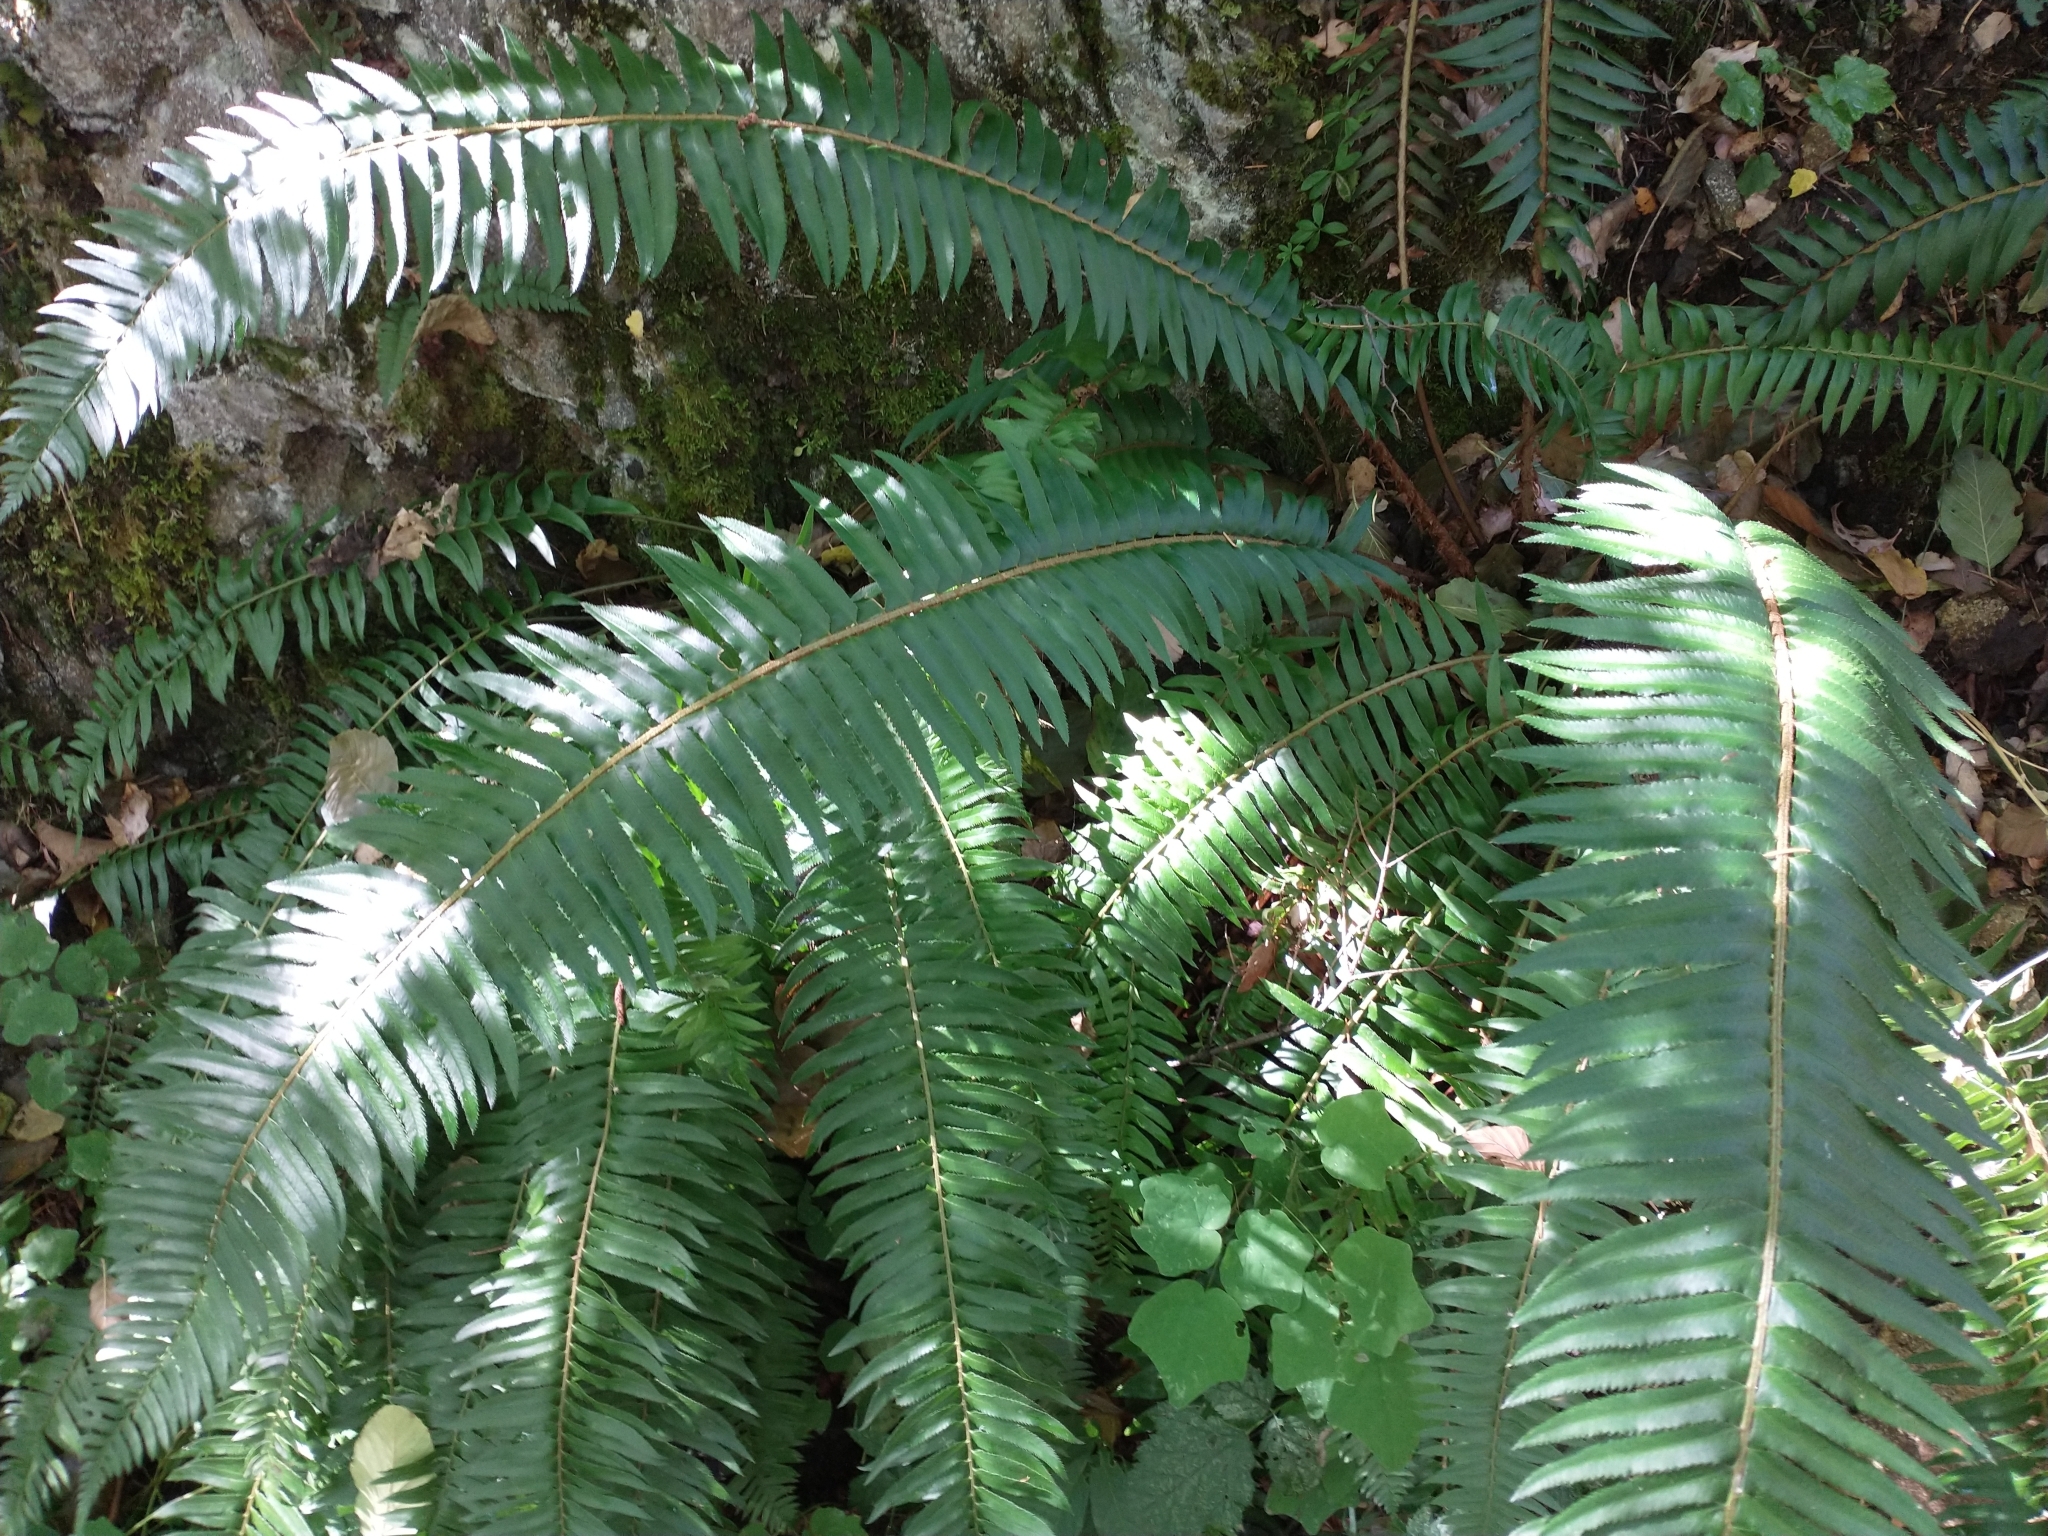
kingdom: Plantae
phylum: Tracheophyta
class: Polypodiopsida
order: Polypodiales
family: Dryopteridaceae
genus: Polystichum
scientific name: Polystichum munitum
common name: Western sword-fern
